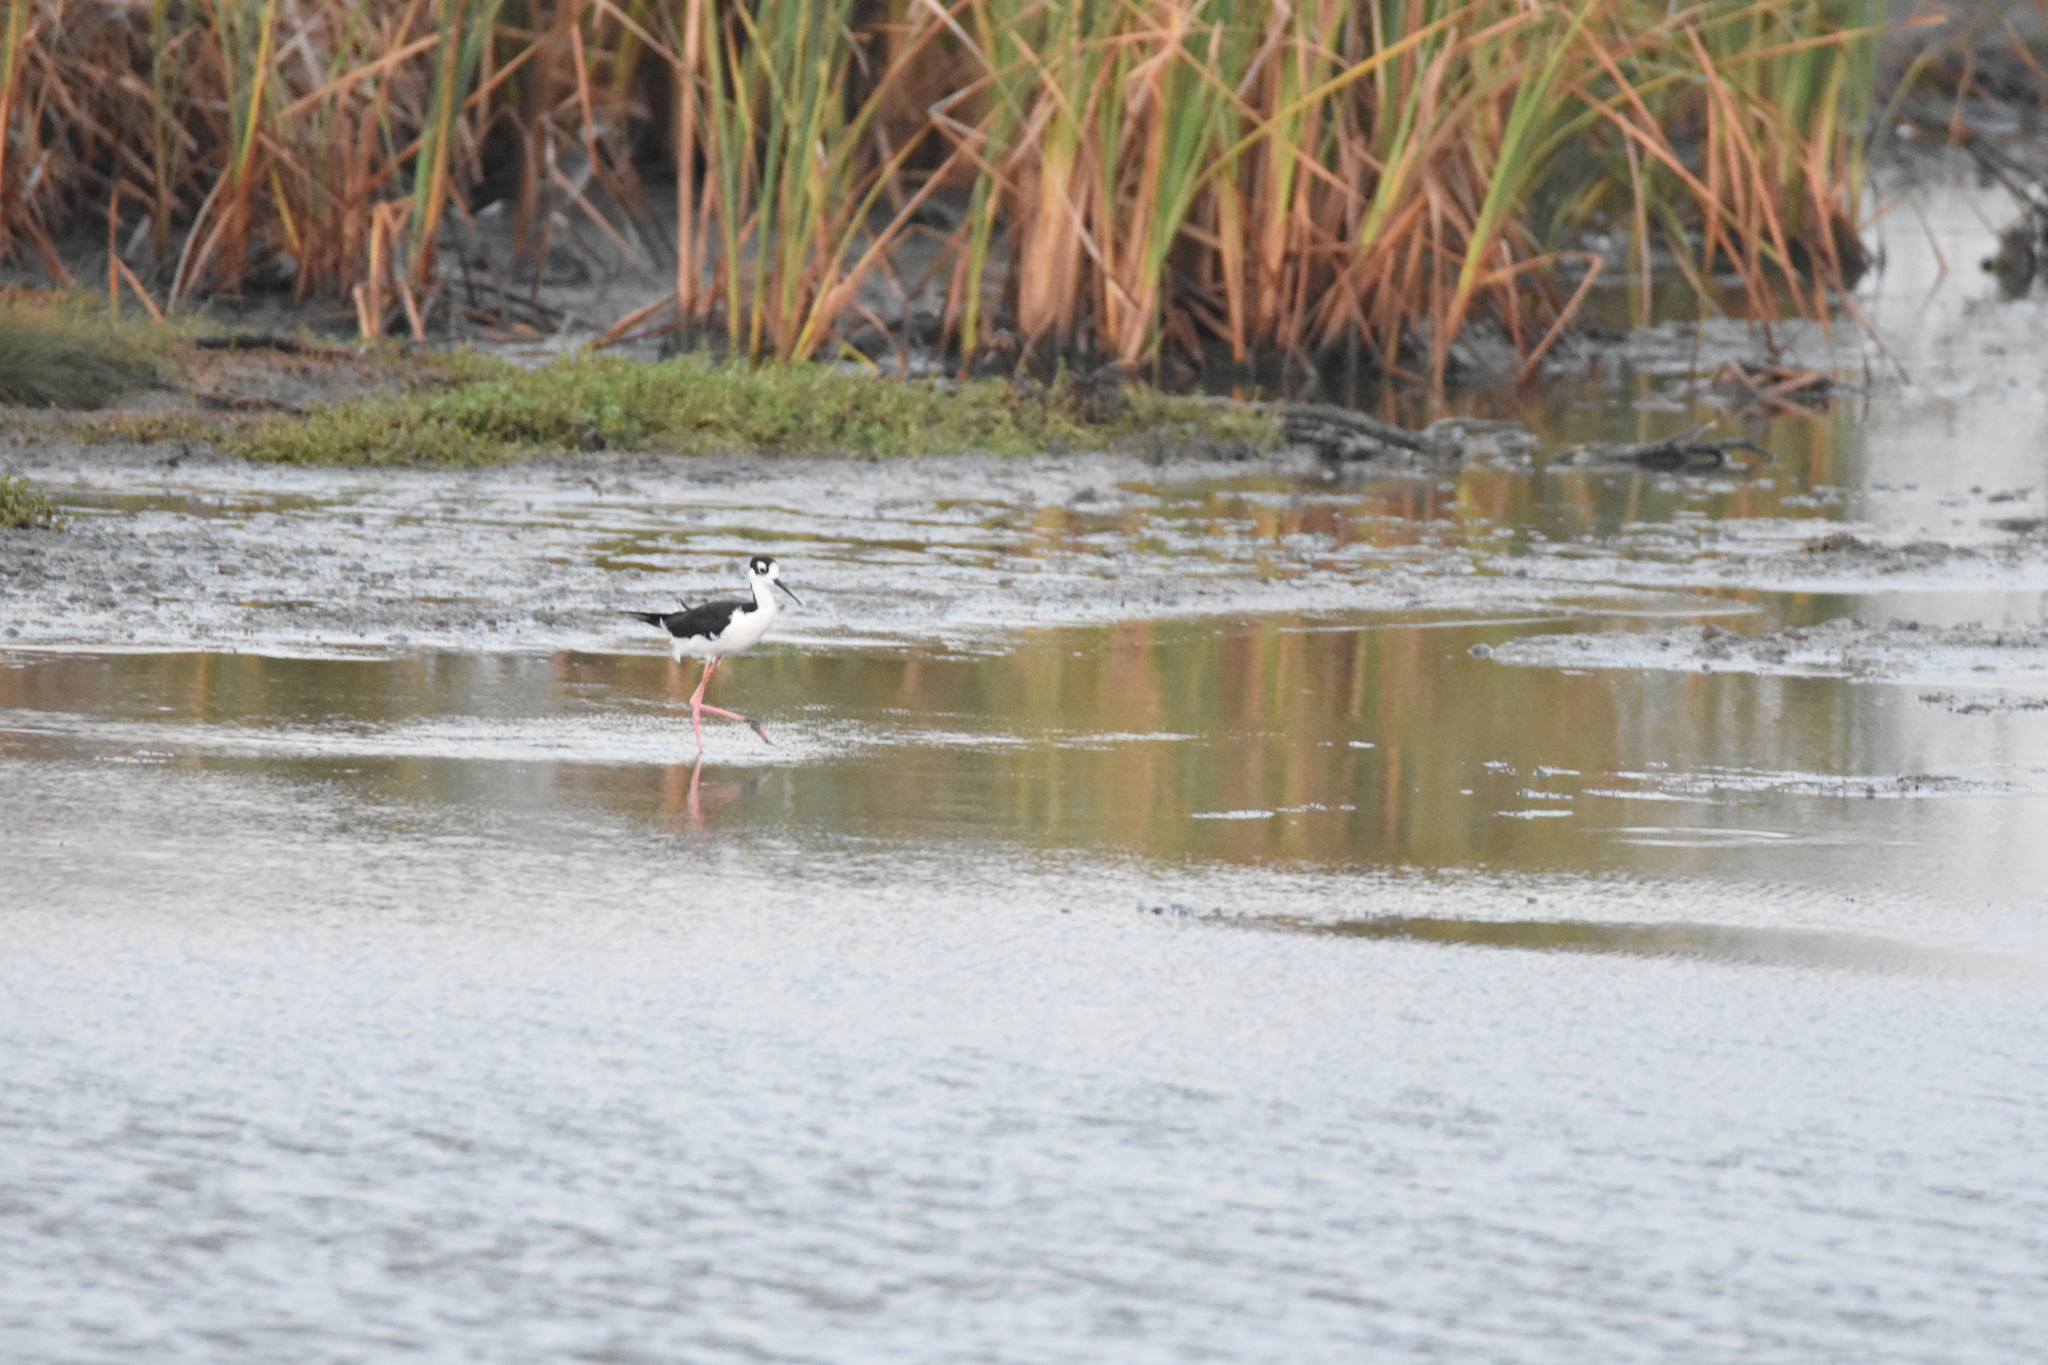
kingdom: Animalia
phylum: Chordata
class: Aves
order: Charadriiformes
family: Recurvirostridae
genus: Himantopus
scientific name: Himantopus mexicanus
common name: Black-necked stilt
